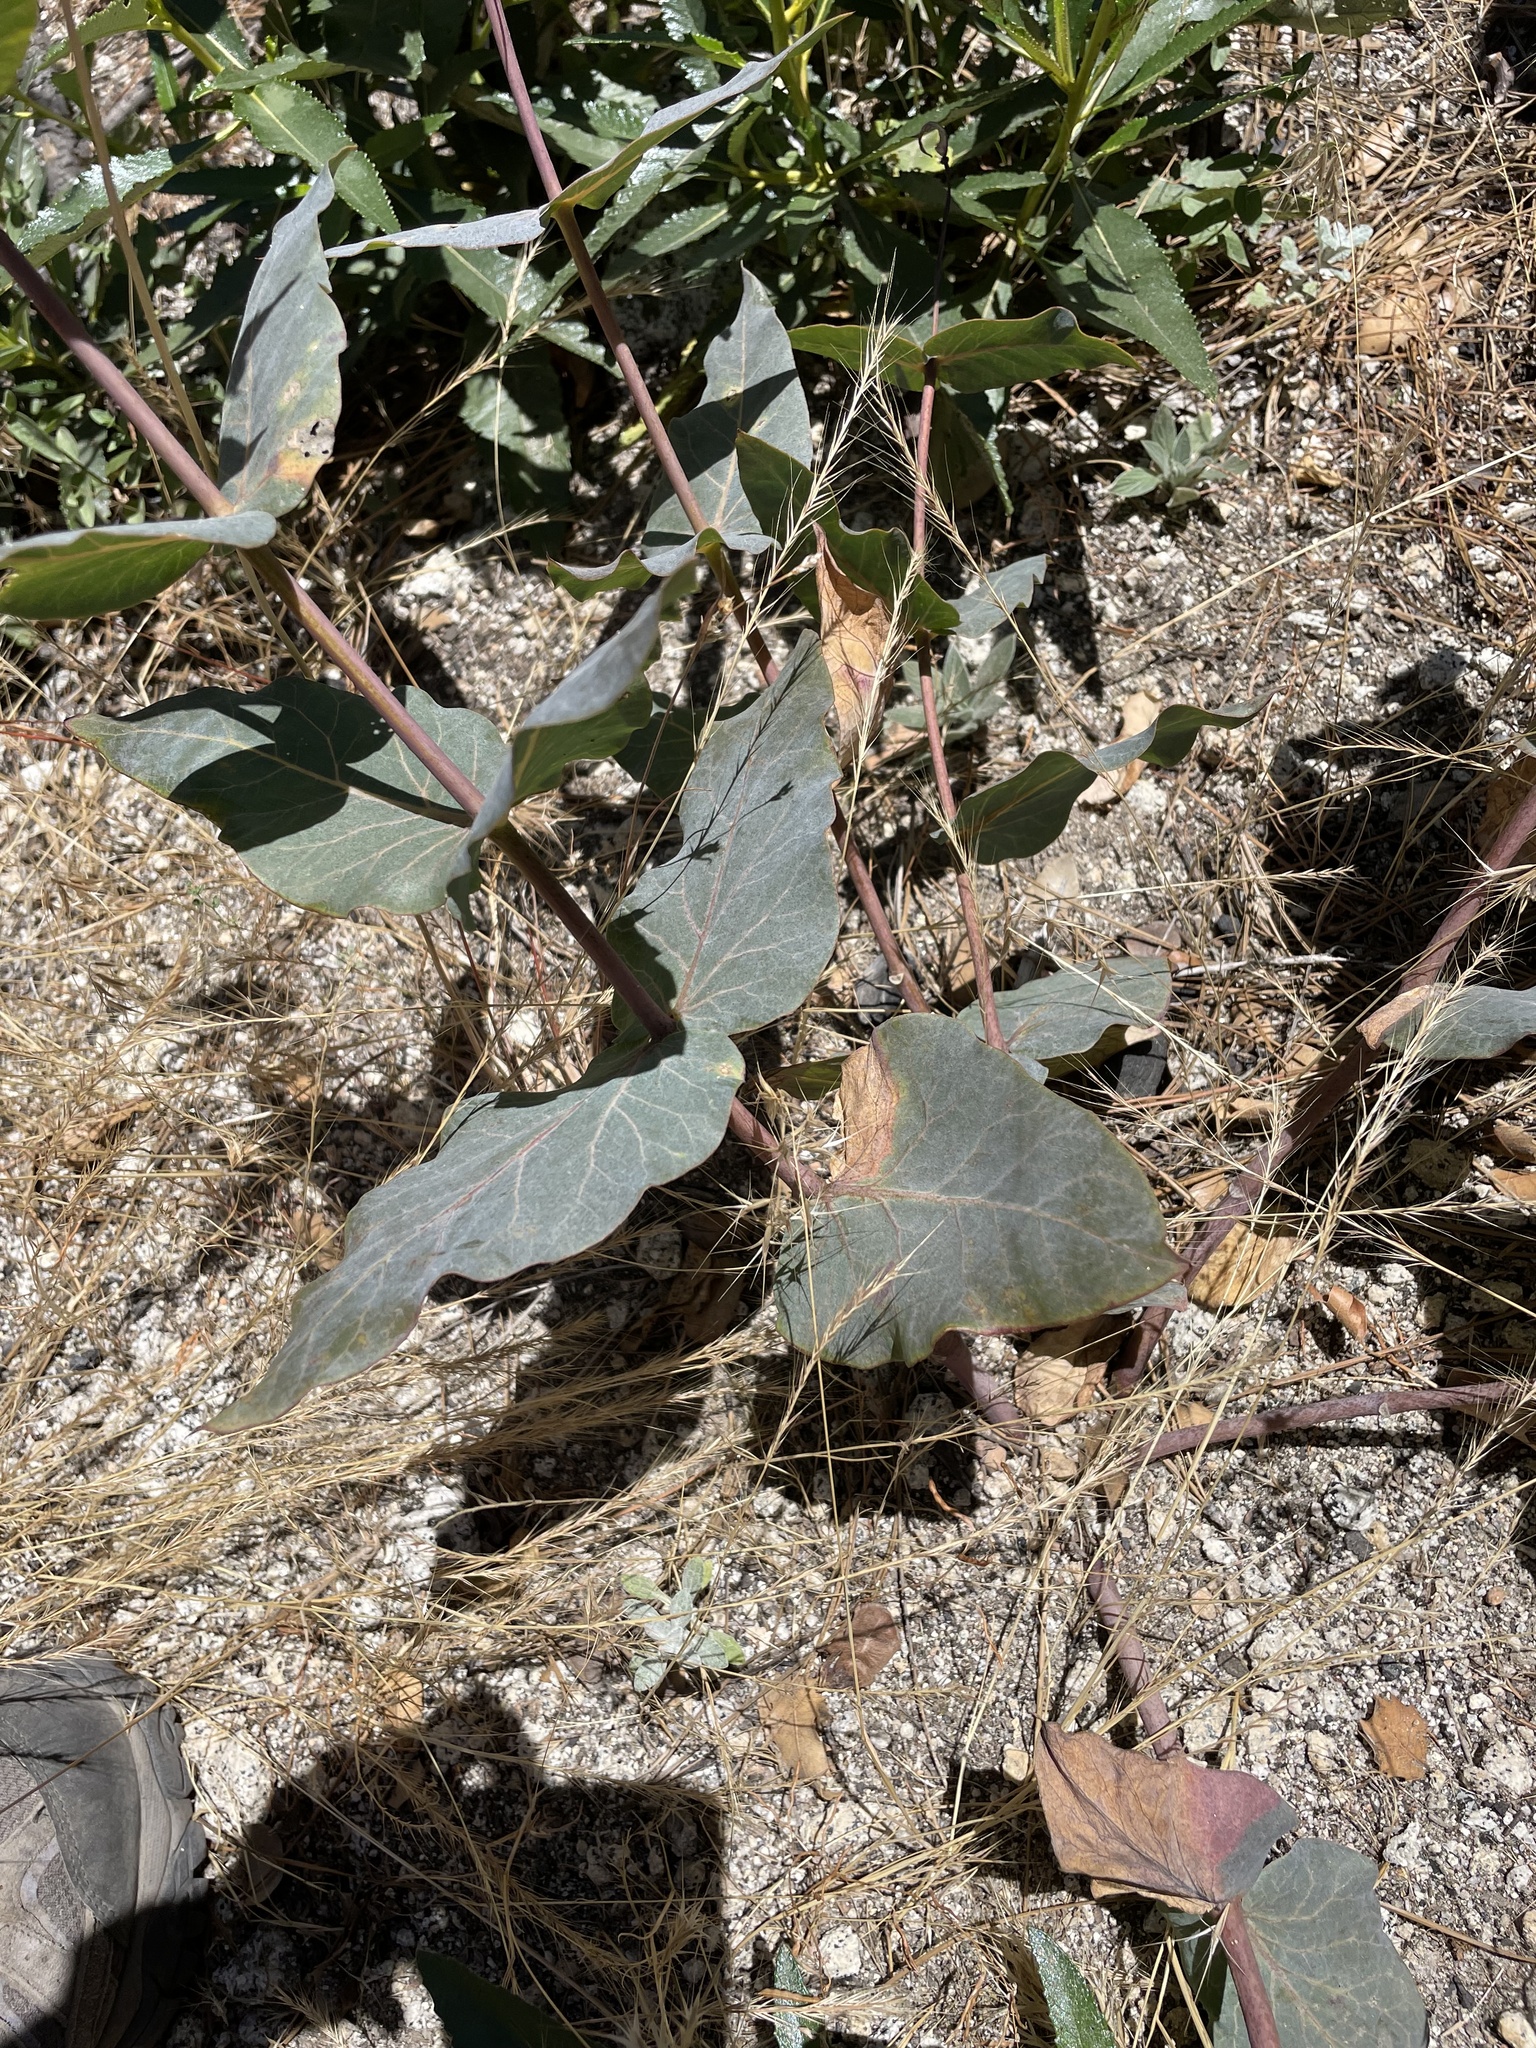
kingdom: Plantae
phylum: Tracheophyta
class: Magnoliopsida
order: Gentianales
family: Apocynaceae
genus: Asclepias
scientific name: Asclepias cordifolia
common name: Purple milkweed
